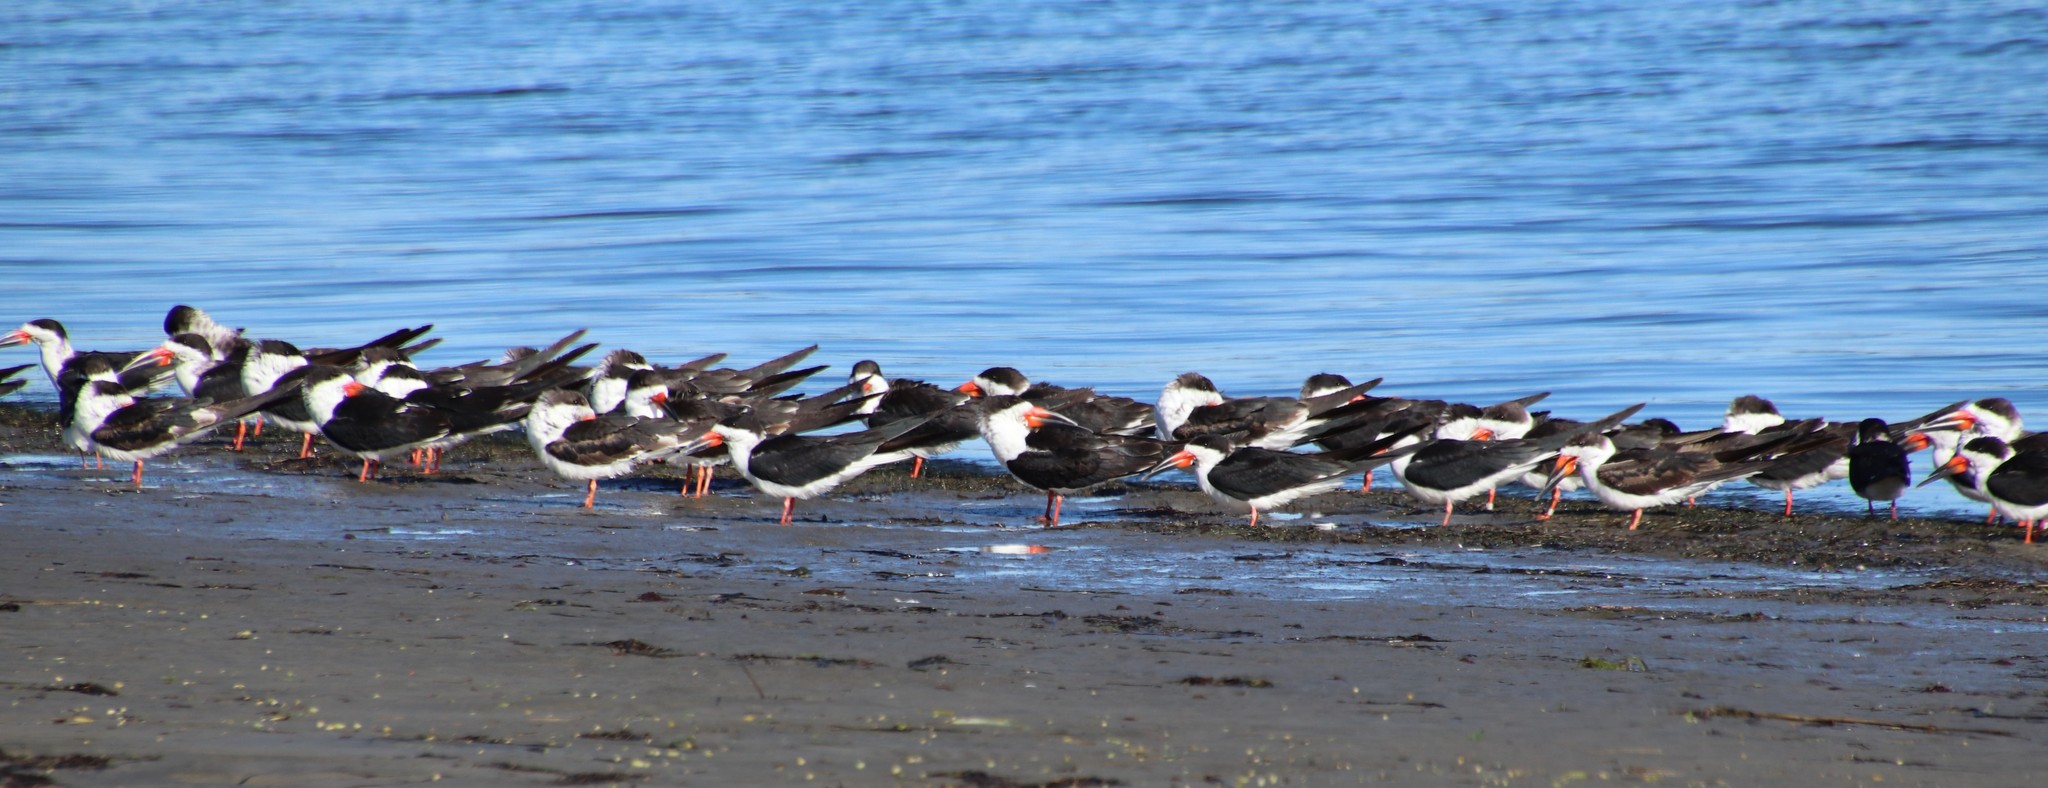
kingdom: Animalia
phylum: Chordata
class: Aves
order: Charadriiformes
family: Laridae
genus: Rynchops
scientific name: Rynchops niger
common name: Black skimmer
